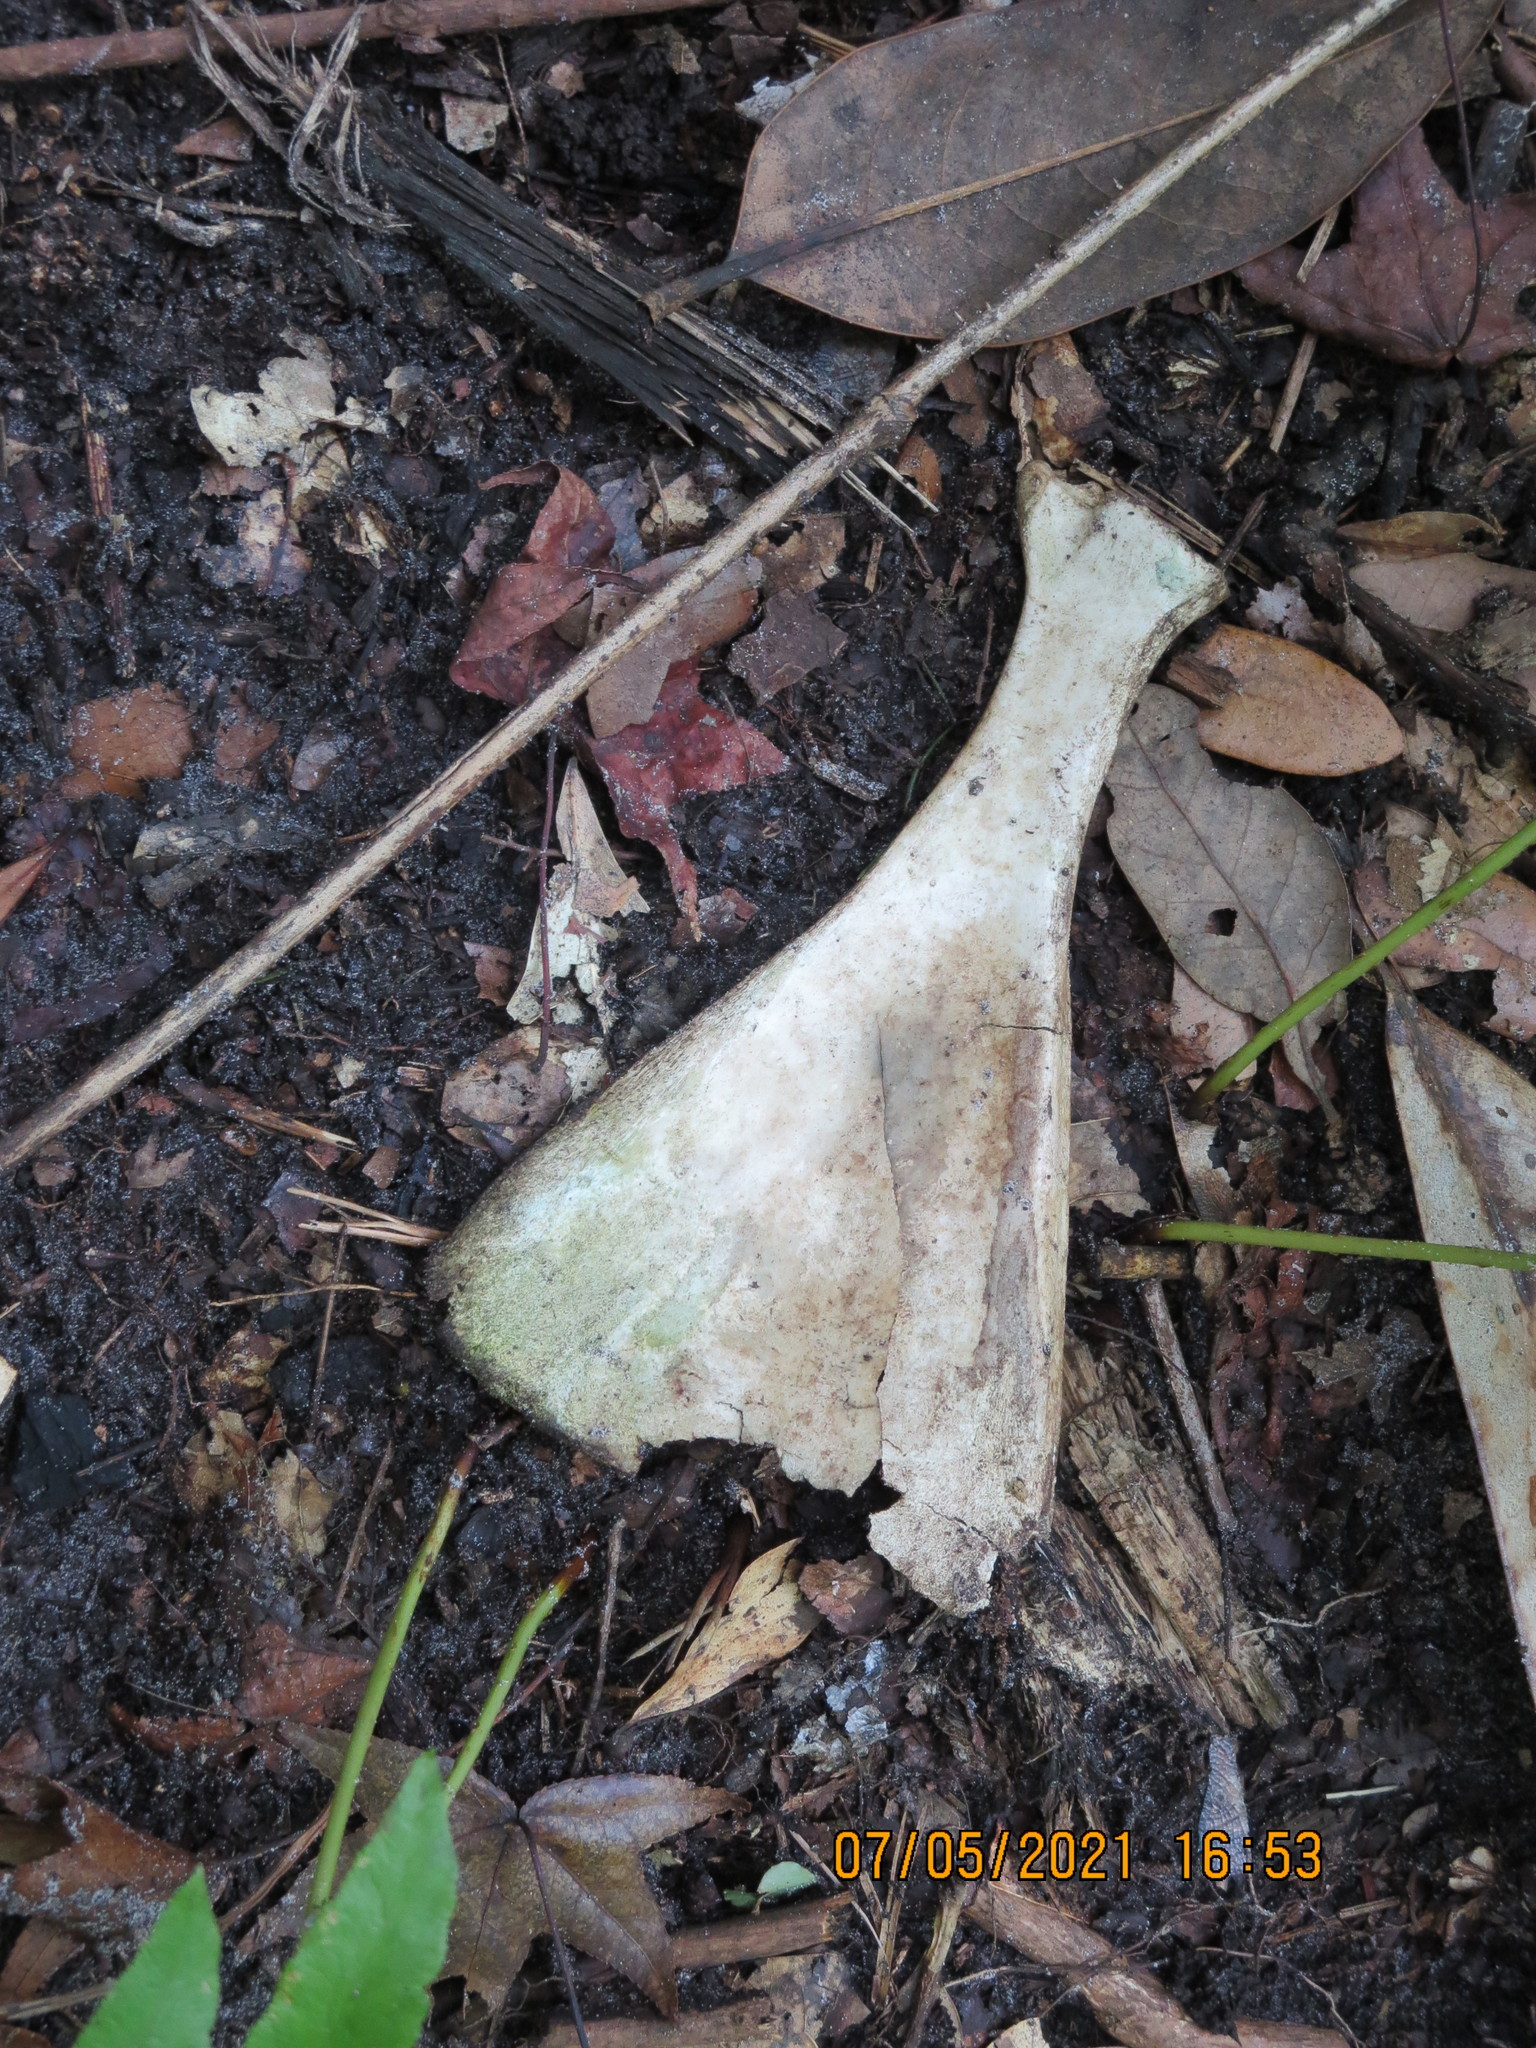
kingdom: Animalia
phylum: Chordata
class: Mammalia
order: Artiodactyla
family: Cervidae
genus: Odocoileus
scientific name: Odocoileus virginianus
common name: White-tailed deer
